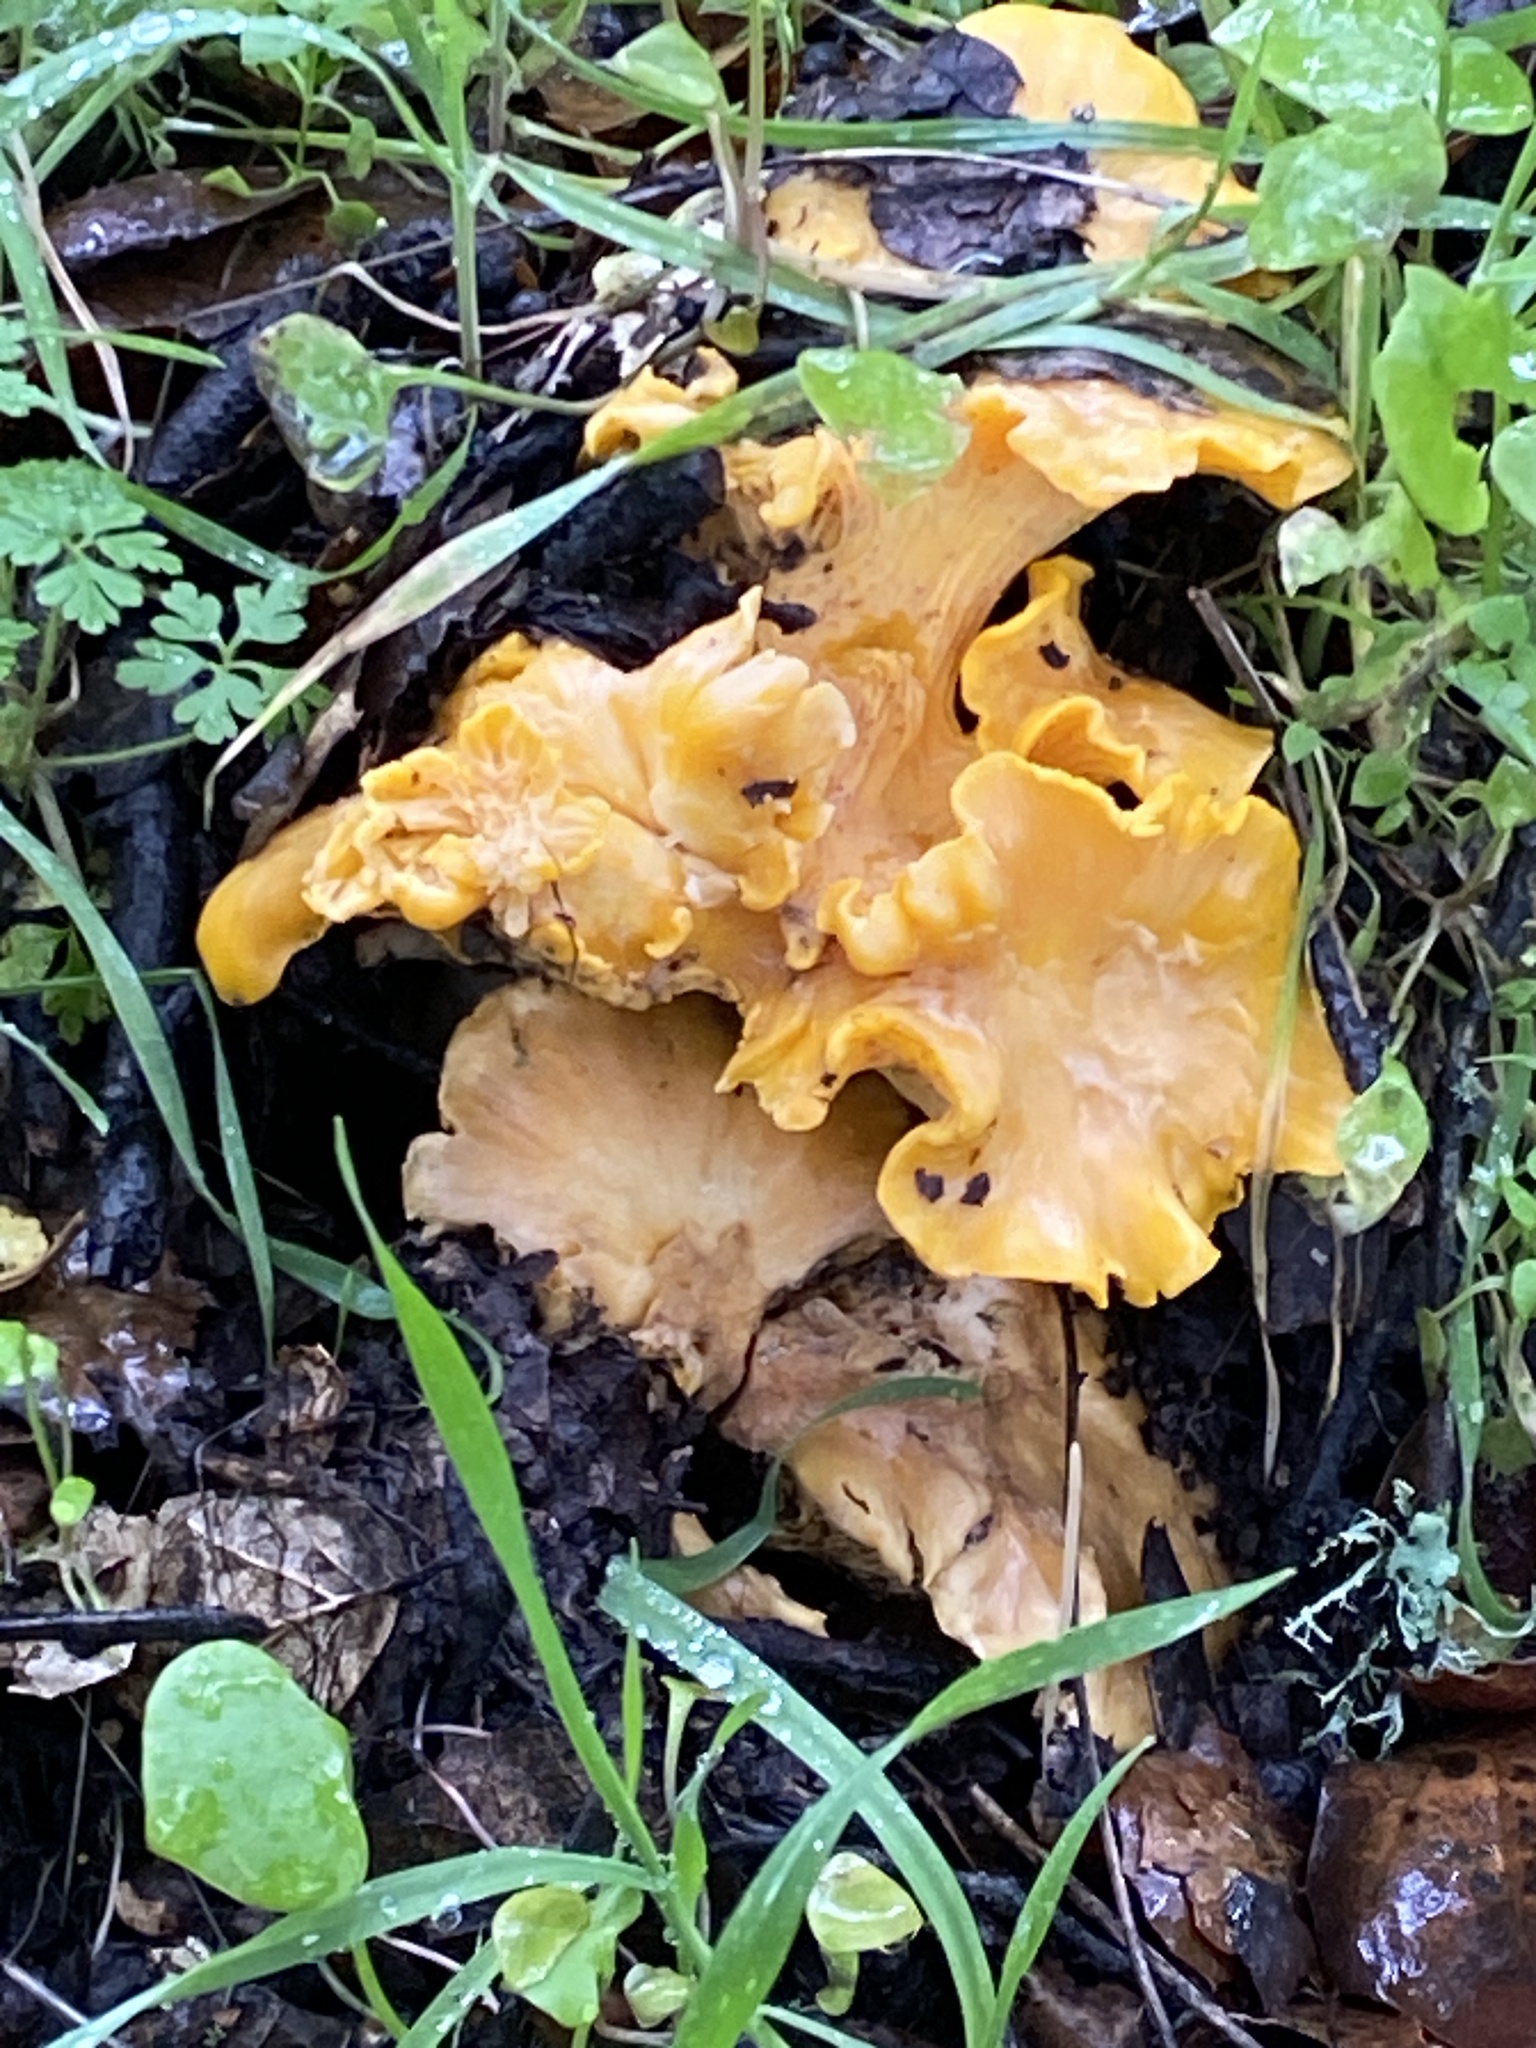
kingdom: Fungi
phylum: Basidiomycota
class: Agaricomycetes
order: Cantharellales
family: Hydnaceae
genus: Cantharellus
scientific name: Cantharellus californicus
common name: California golden chanterelle
